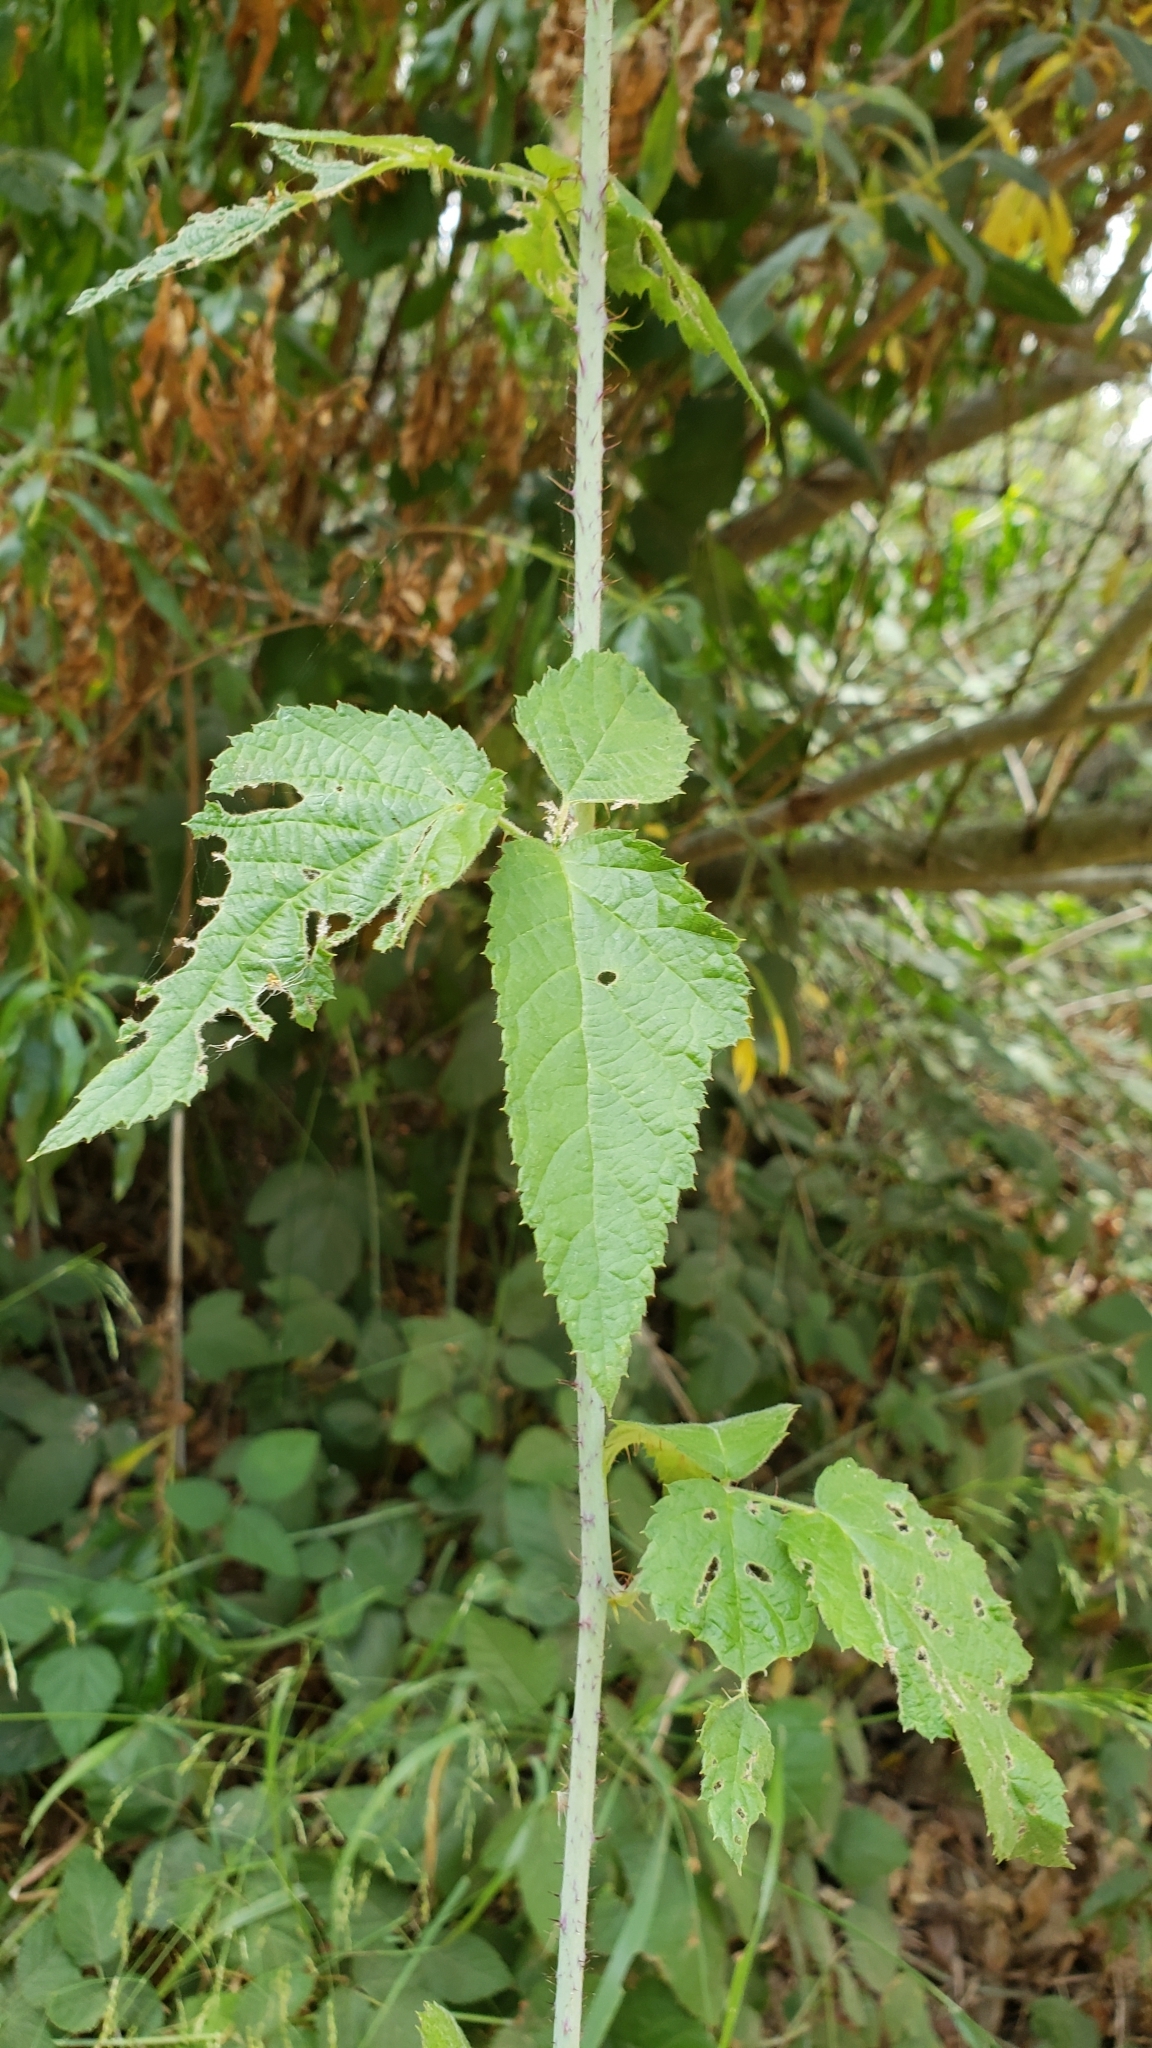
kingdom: Plantae
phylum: Tracheophyta
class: Magnoliopsida
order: Rosales
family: Rosaceae
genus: Rubus
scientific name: Rubus ursinus
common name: Pacific blackberry
